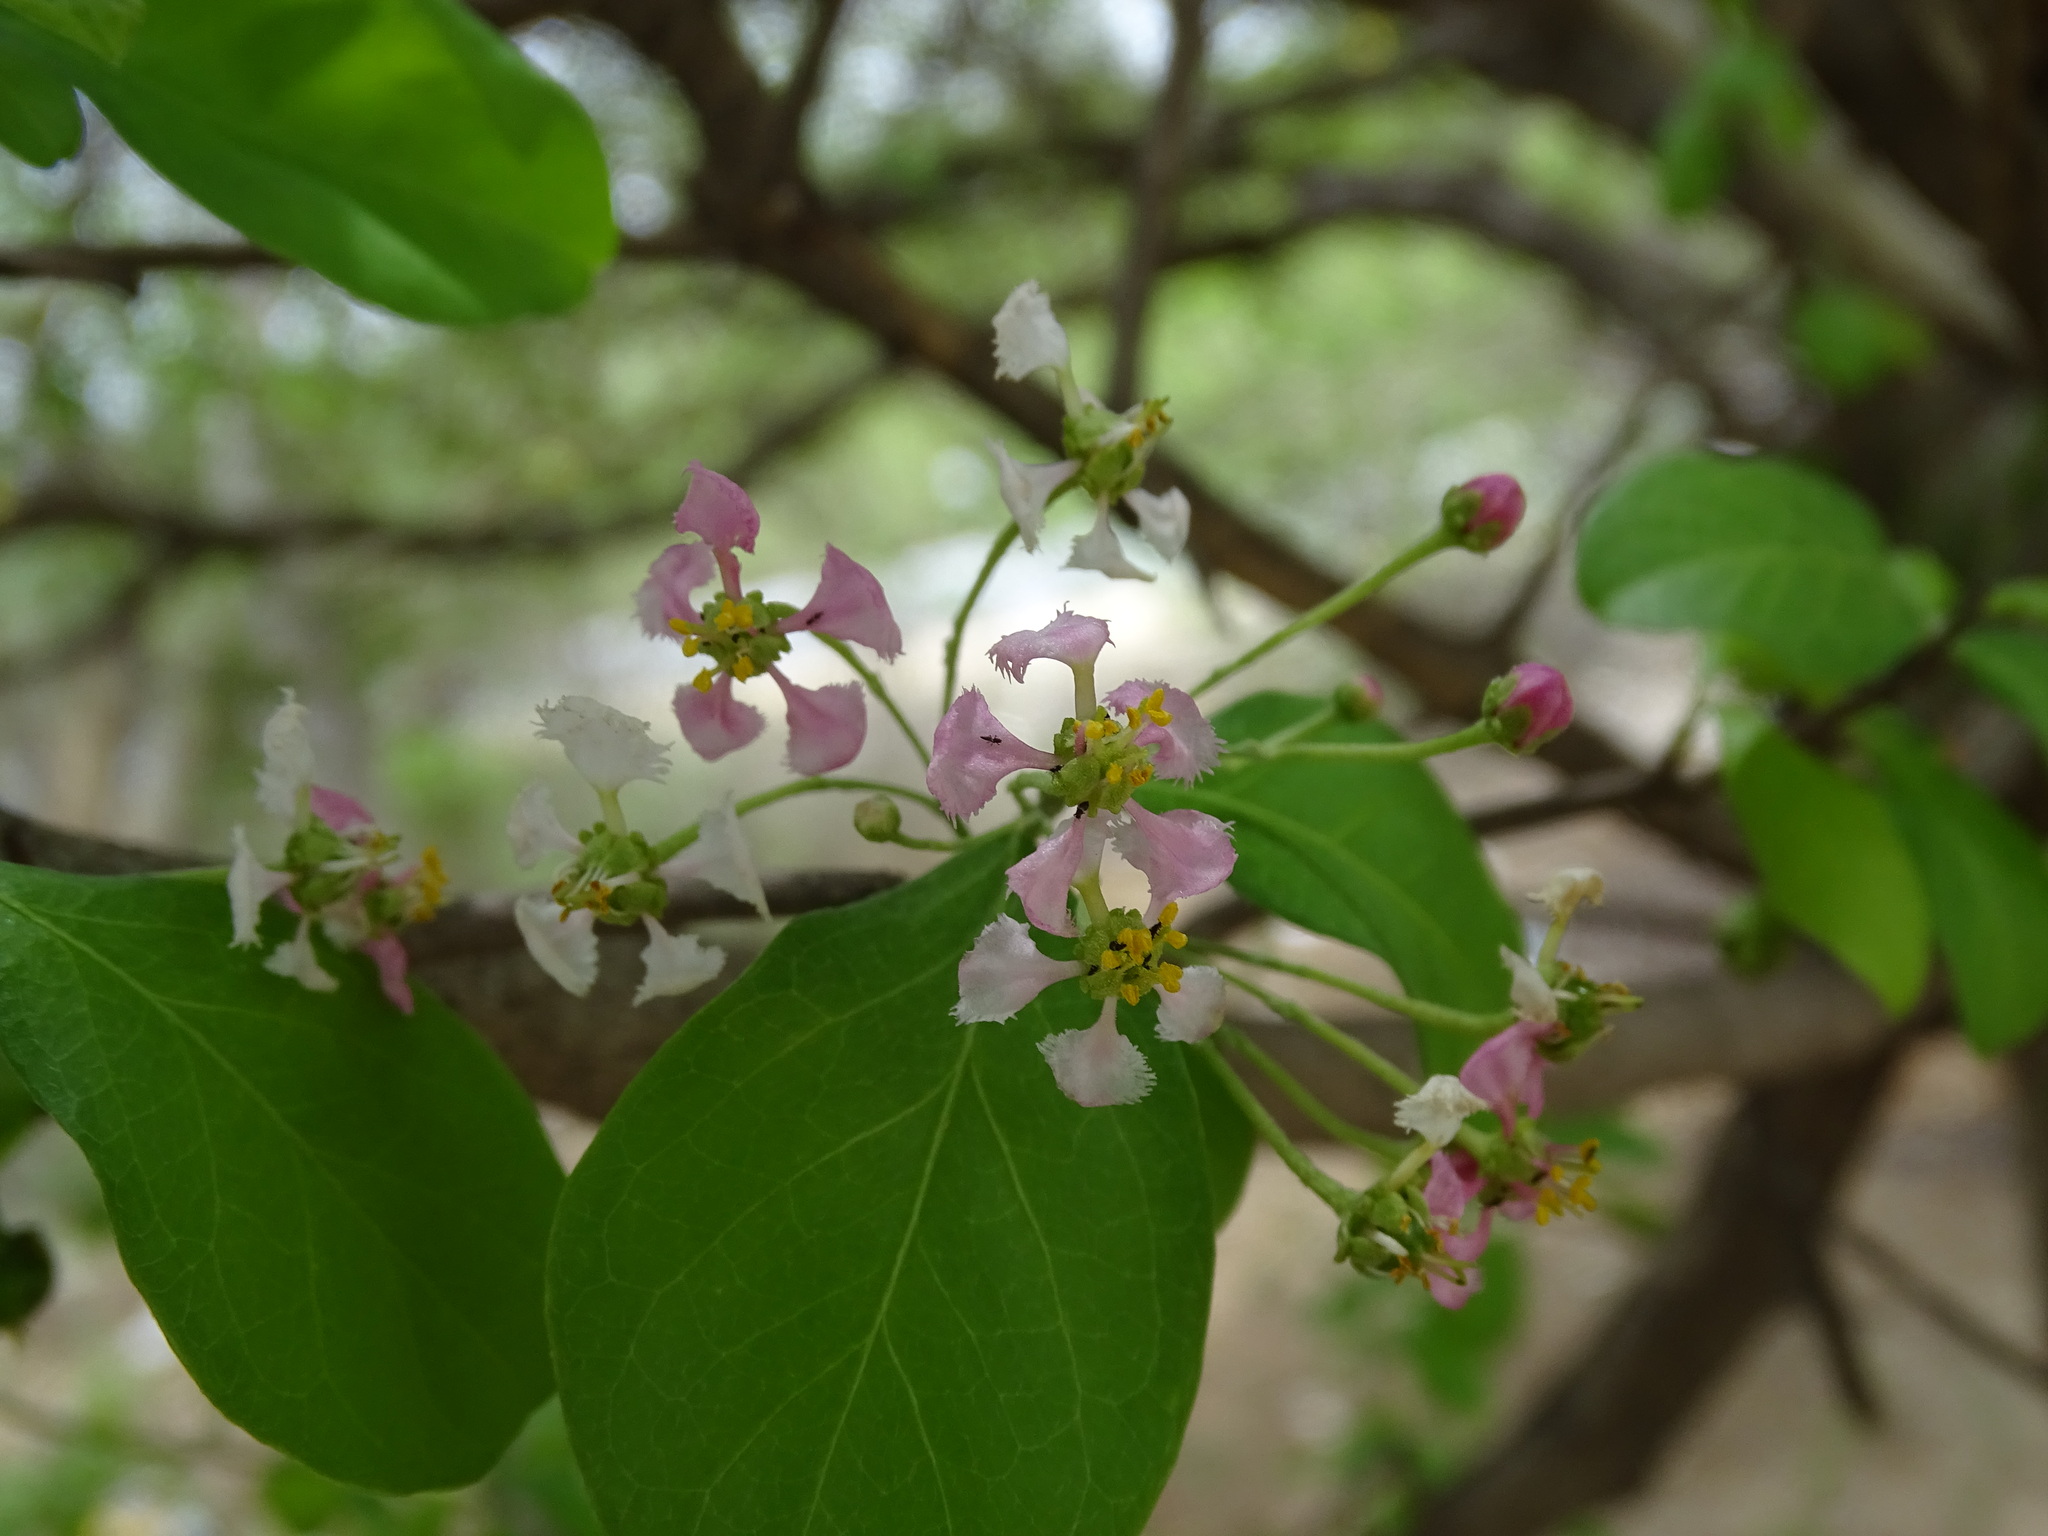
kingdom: Plantae
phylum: Tracheophyta
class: Magnoliopsida
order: Malpighiales
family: Malpighiaceae
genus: Malpighia
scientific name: Malpighia emarginata
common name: Barbados cherry
